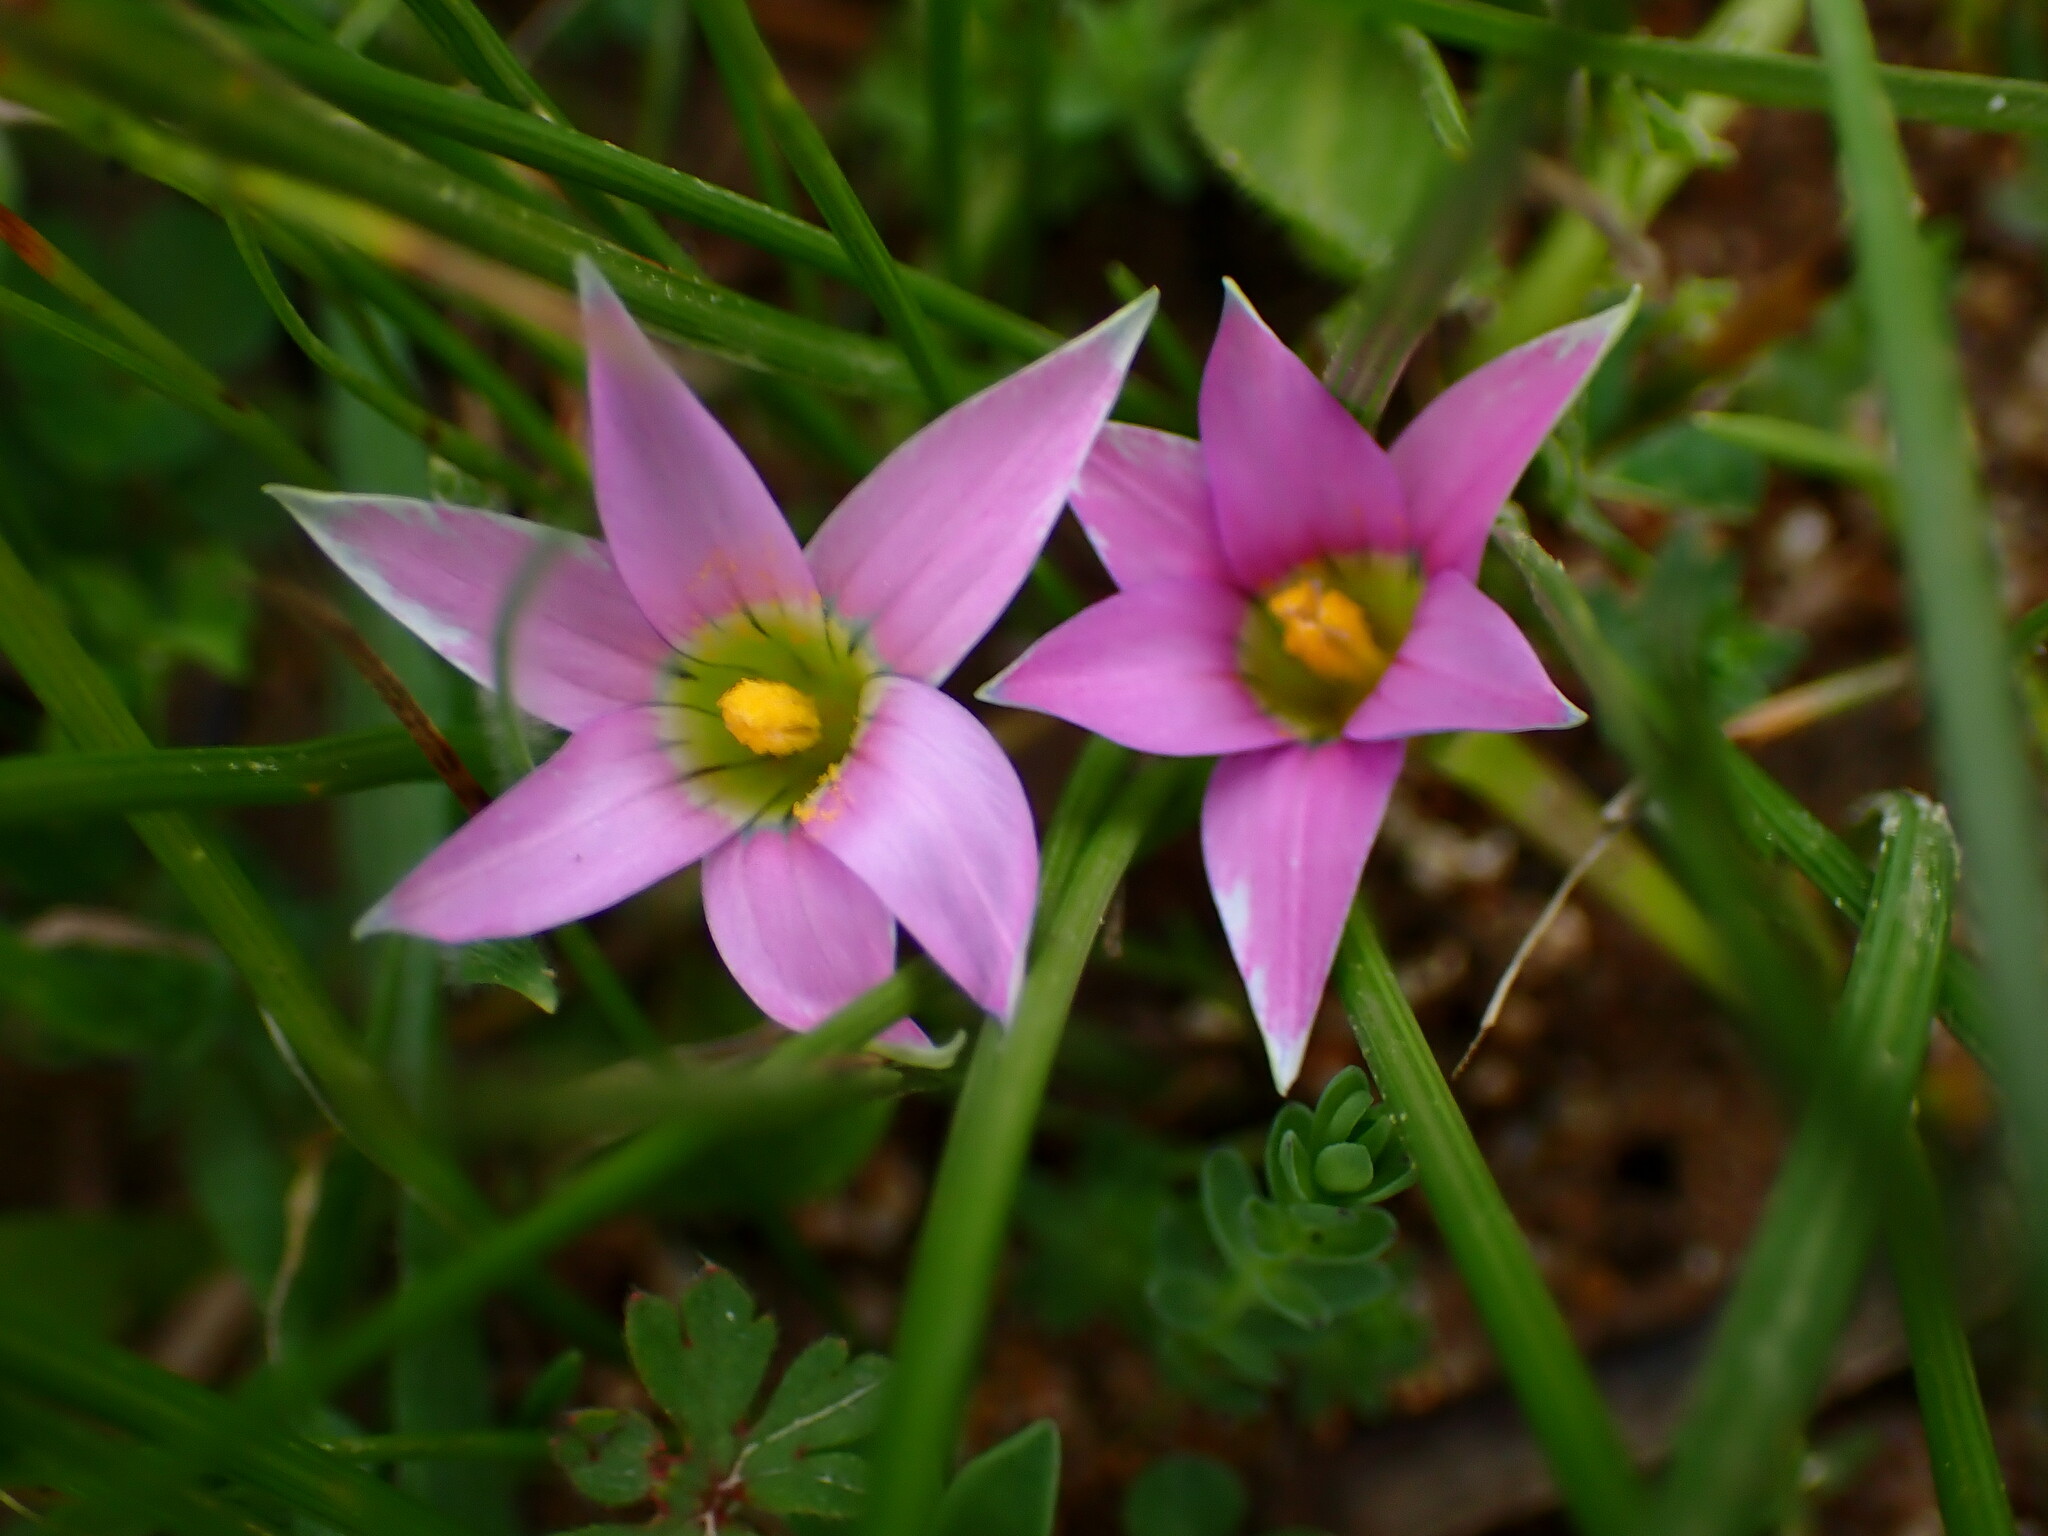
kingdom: Plantae
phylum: Tracheophyta
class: Liliopsida
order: Asparagales
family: Iridaceae
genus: Romulea
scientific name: Romulea rosea
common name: Oniongrass
